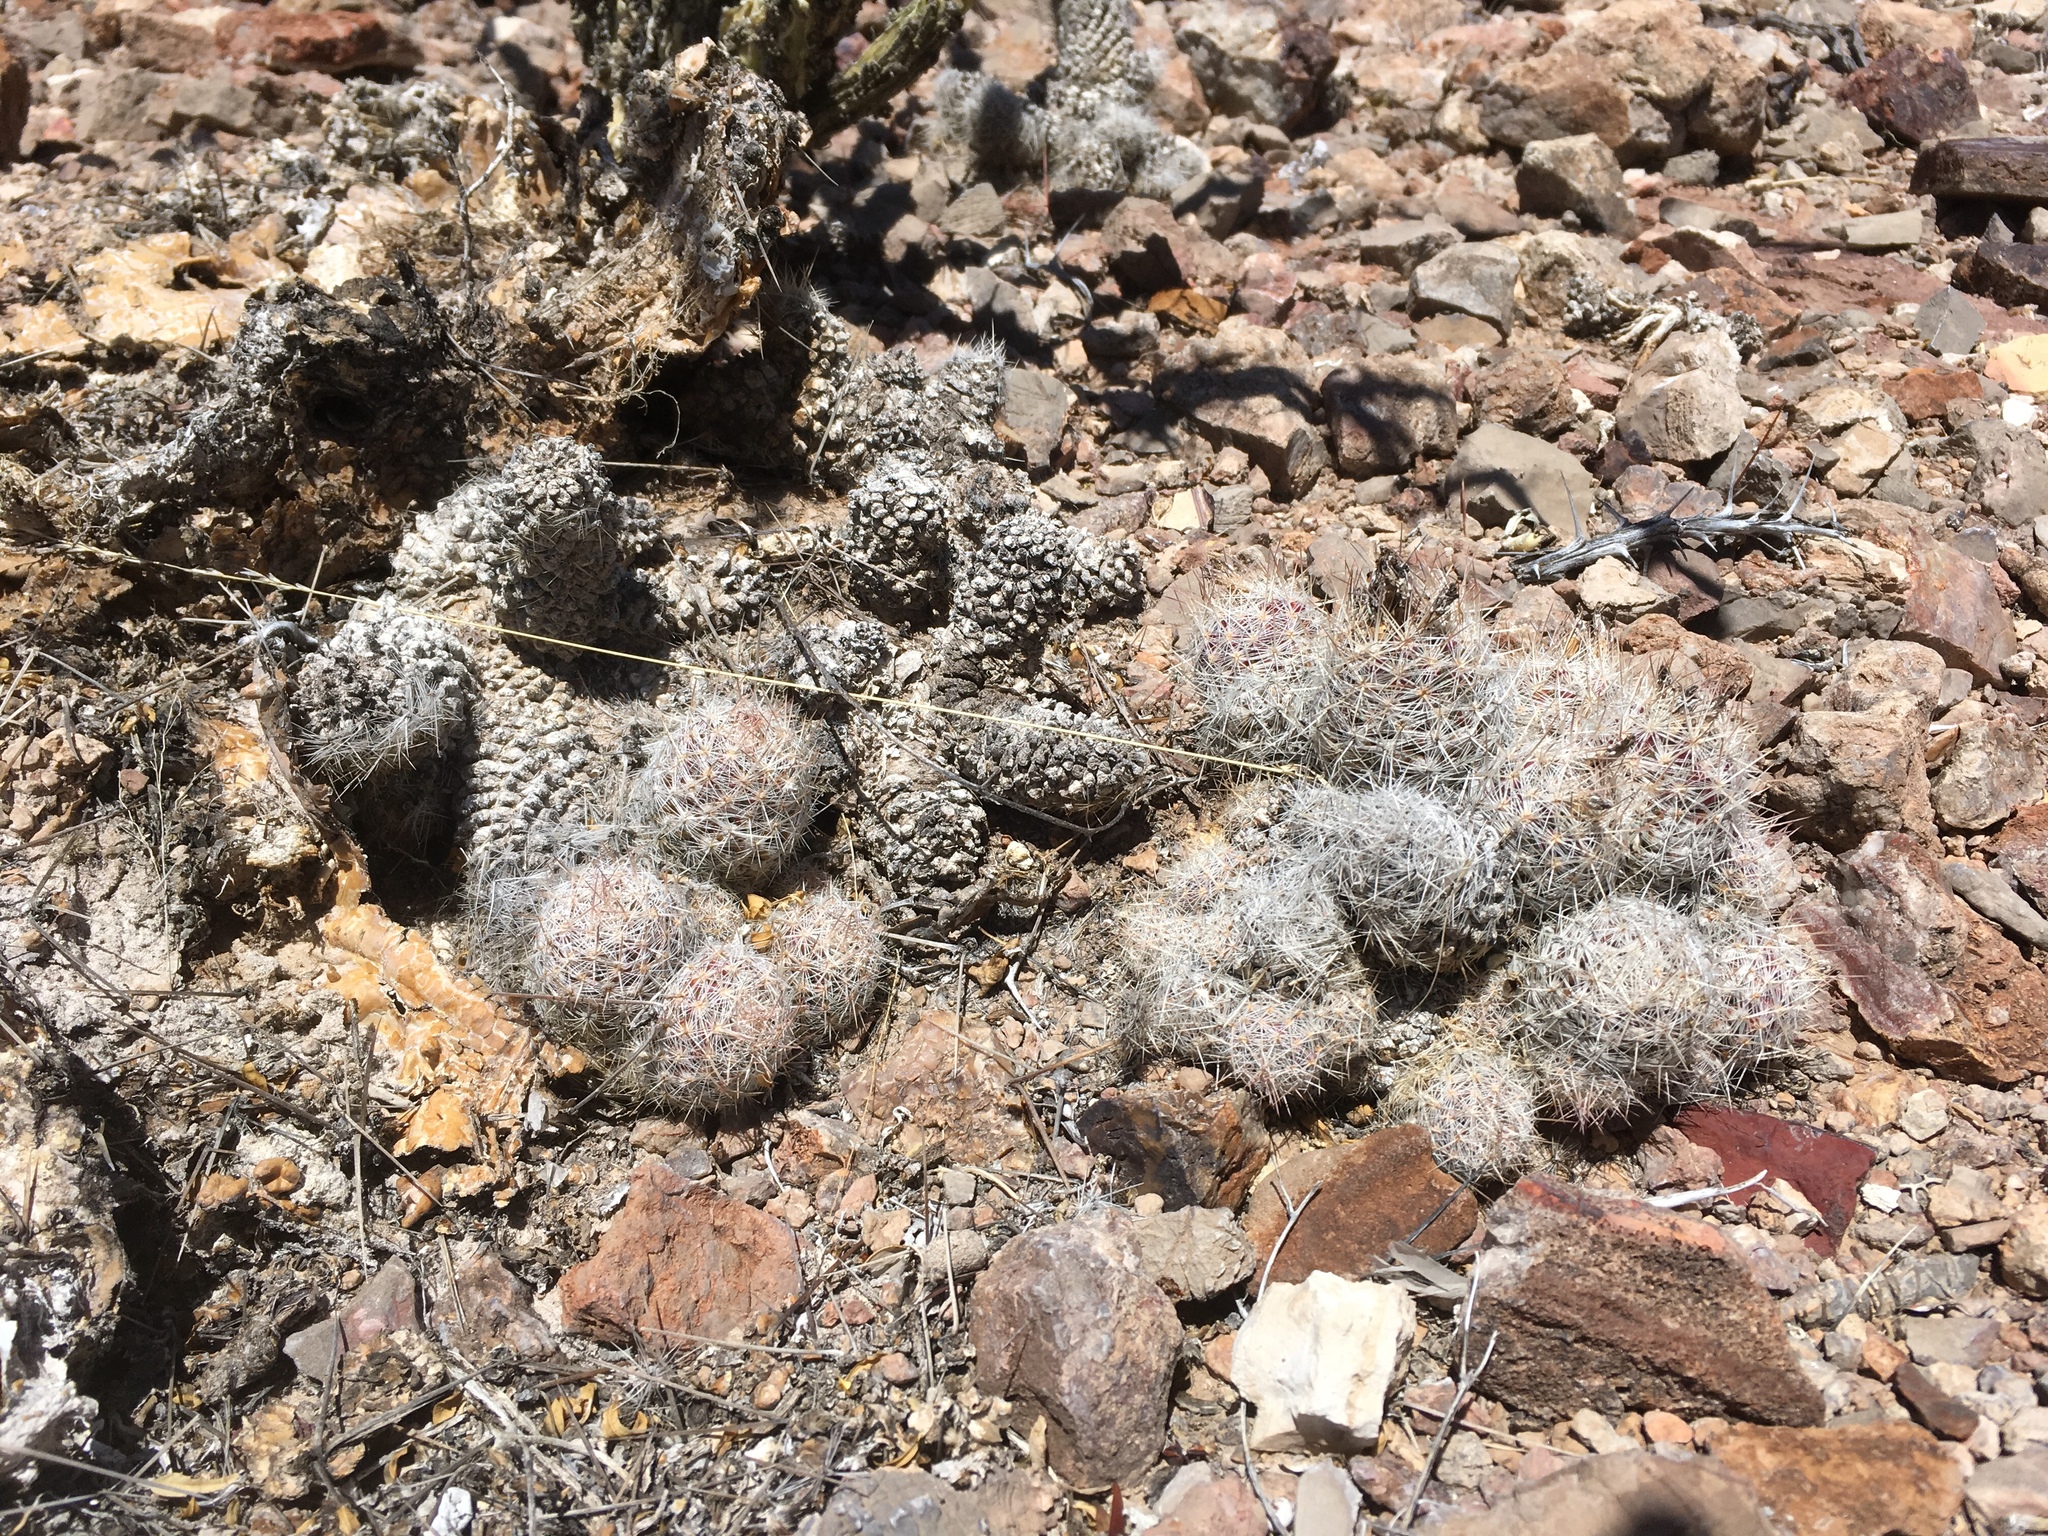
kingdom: Plantae
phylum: Tracheophyta
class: Magnoliopsida
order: Caryophyllales
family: Cactaceae
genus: Pelecyphora
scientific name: Pelecyphora tuberculosa
